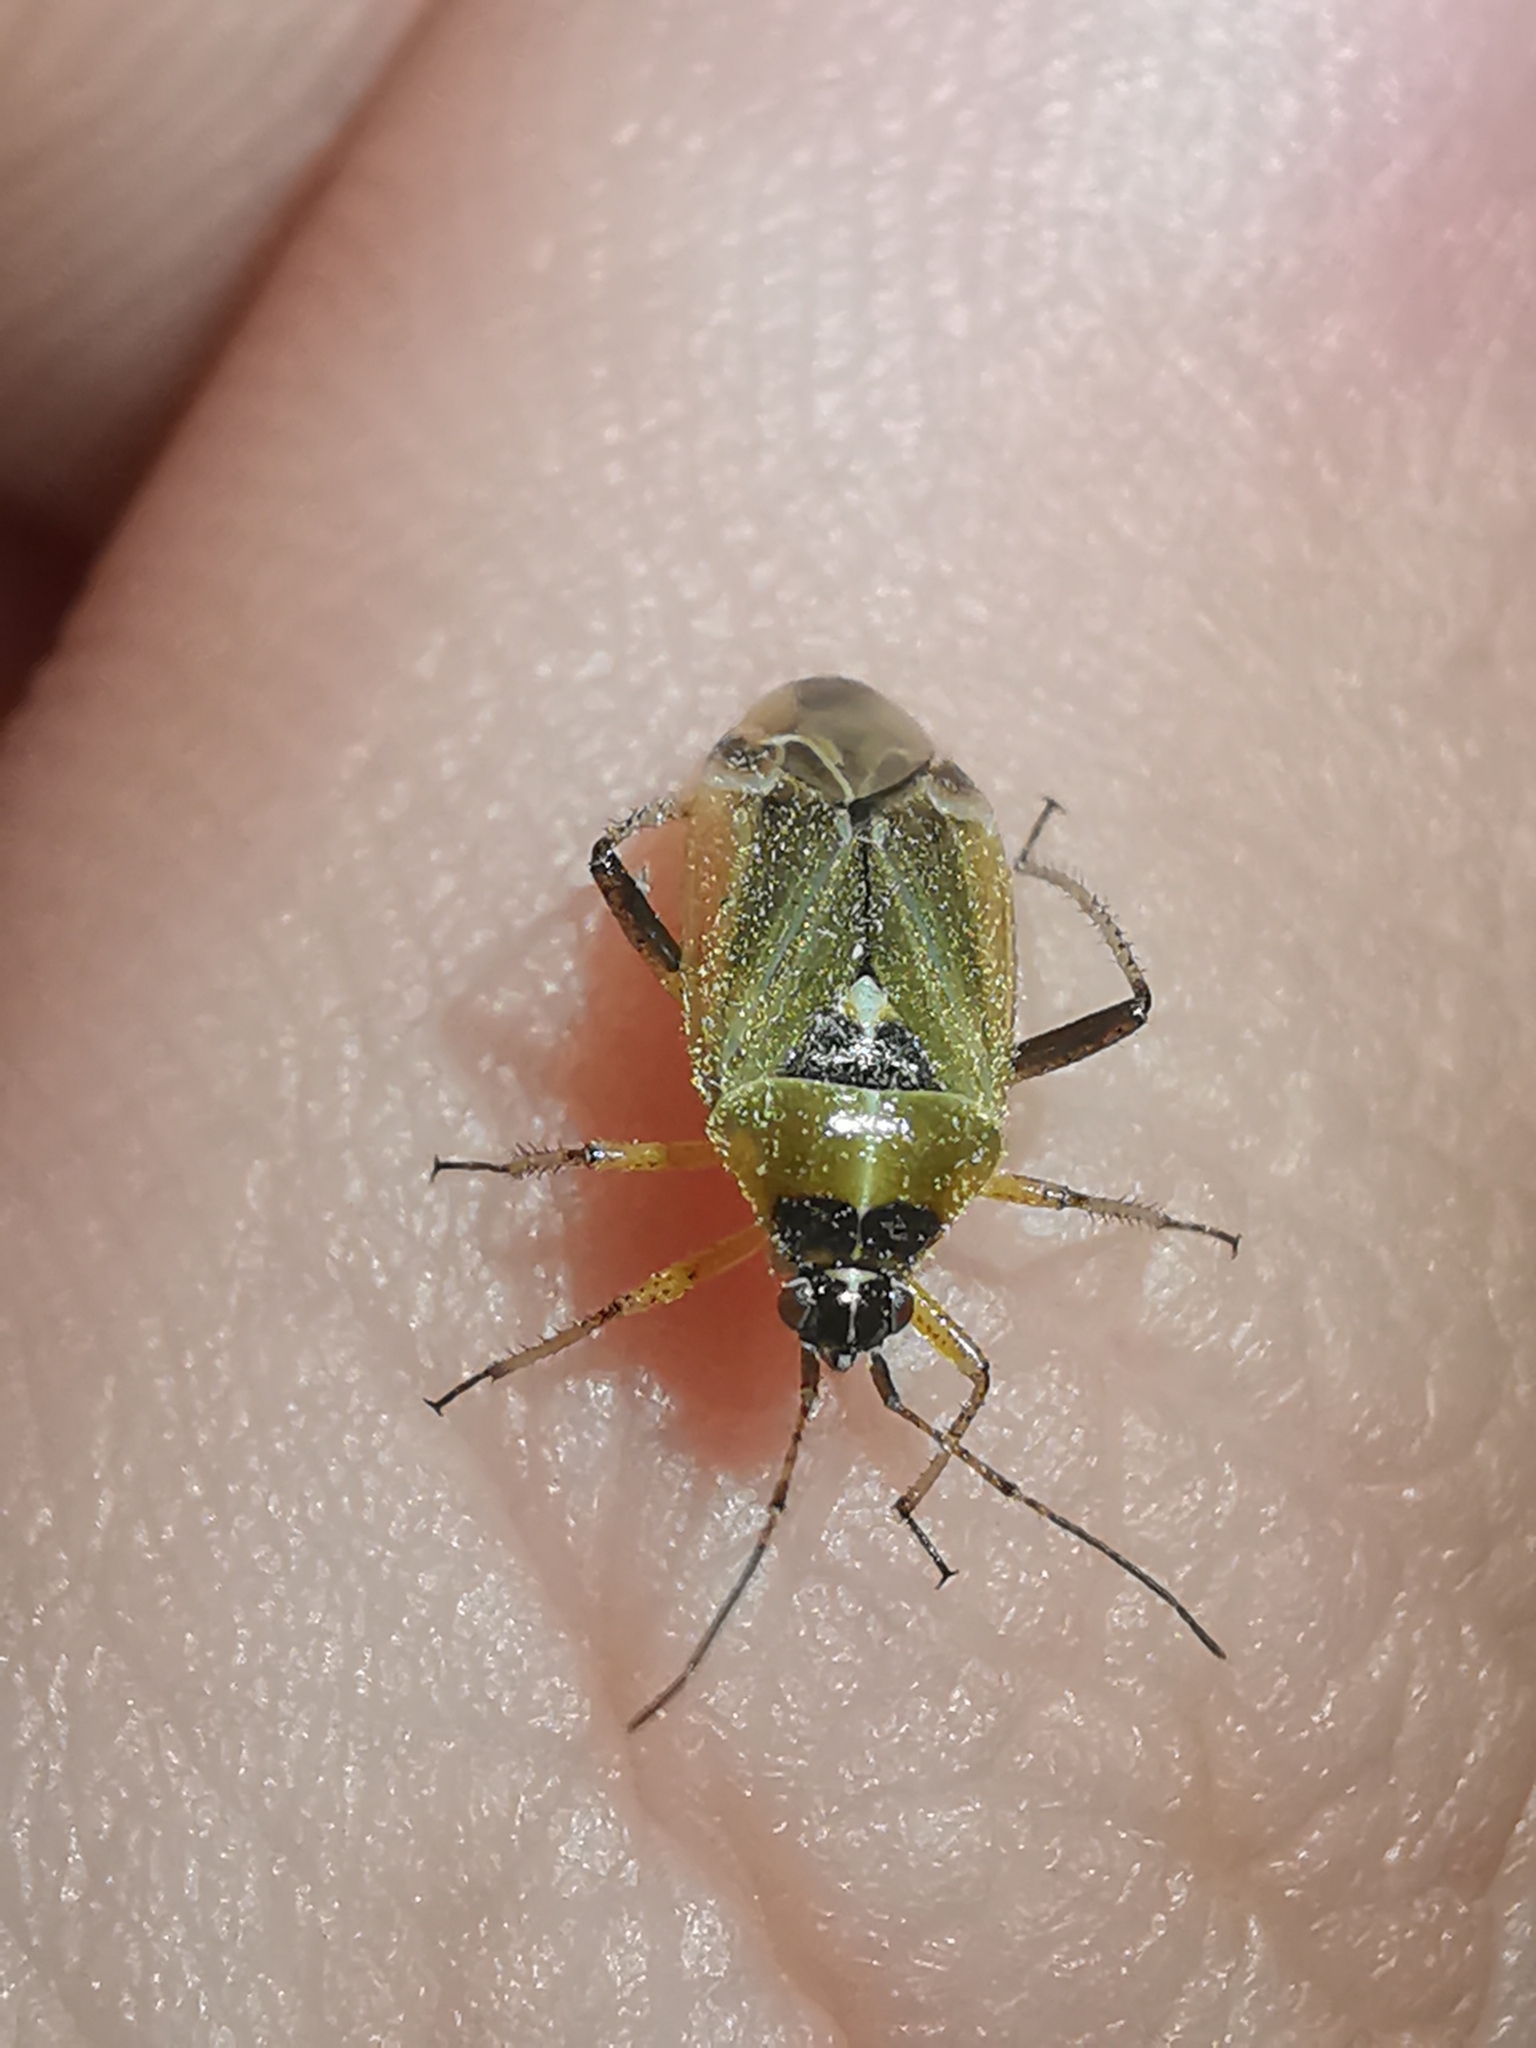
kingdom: Animalia
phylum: Arthropoda
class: Insecta
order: Hemiptera
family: Miridae
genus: Harpocera
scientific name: Harpocera thoracica
